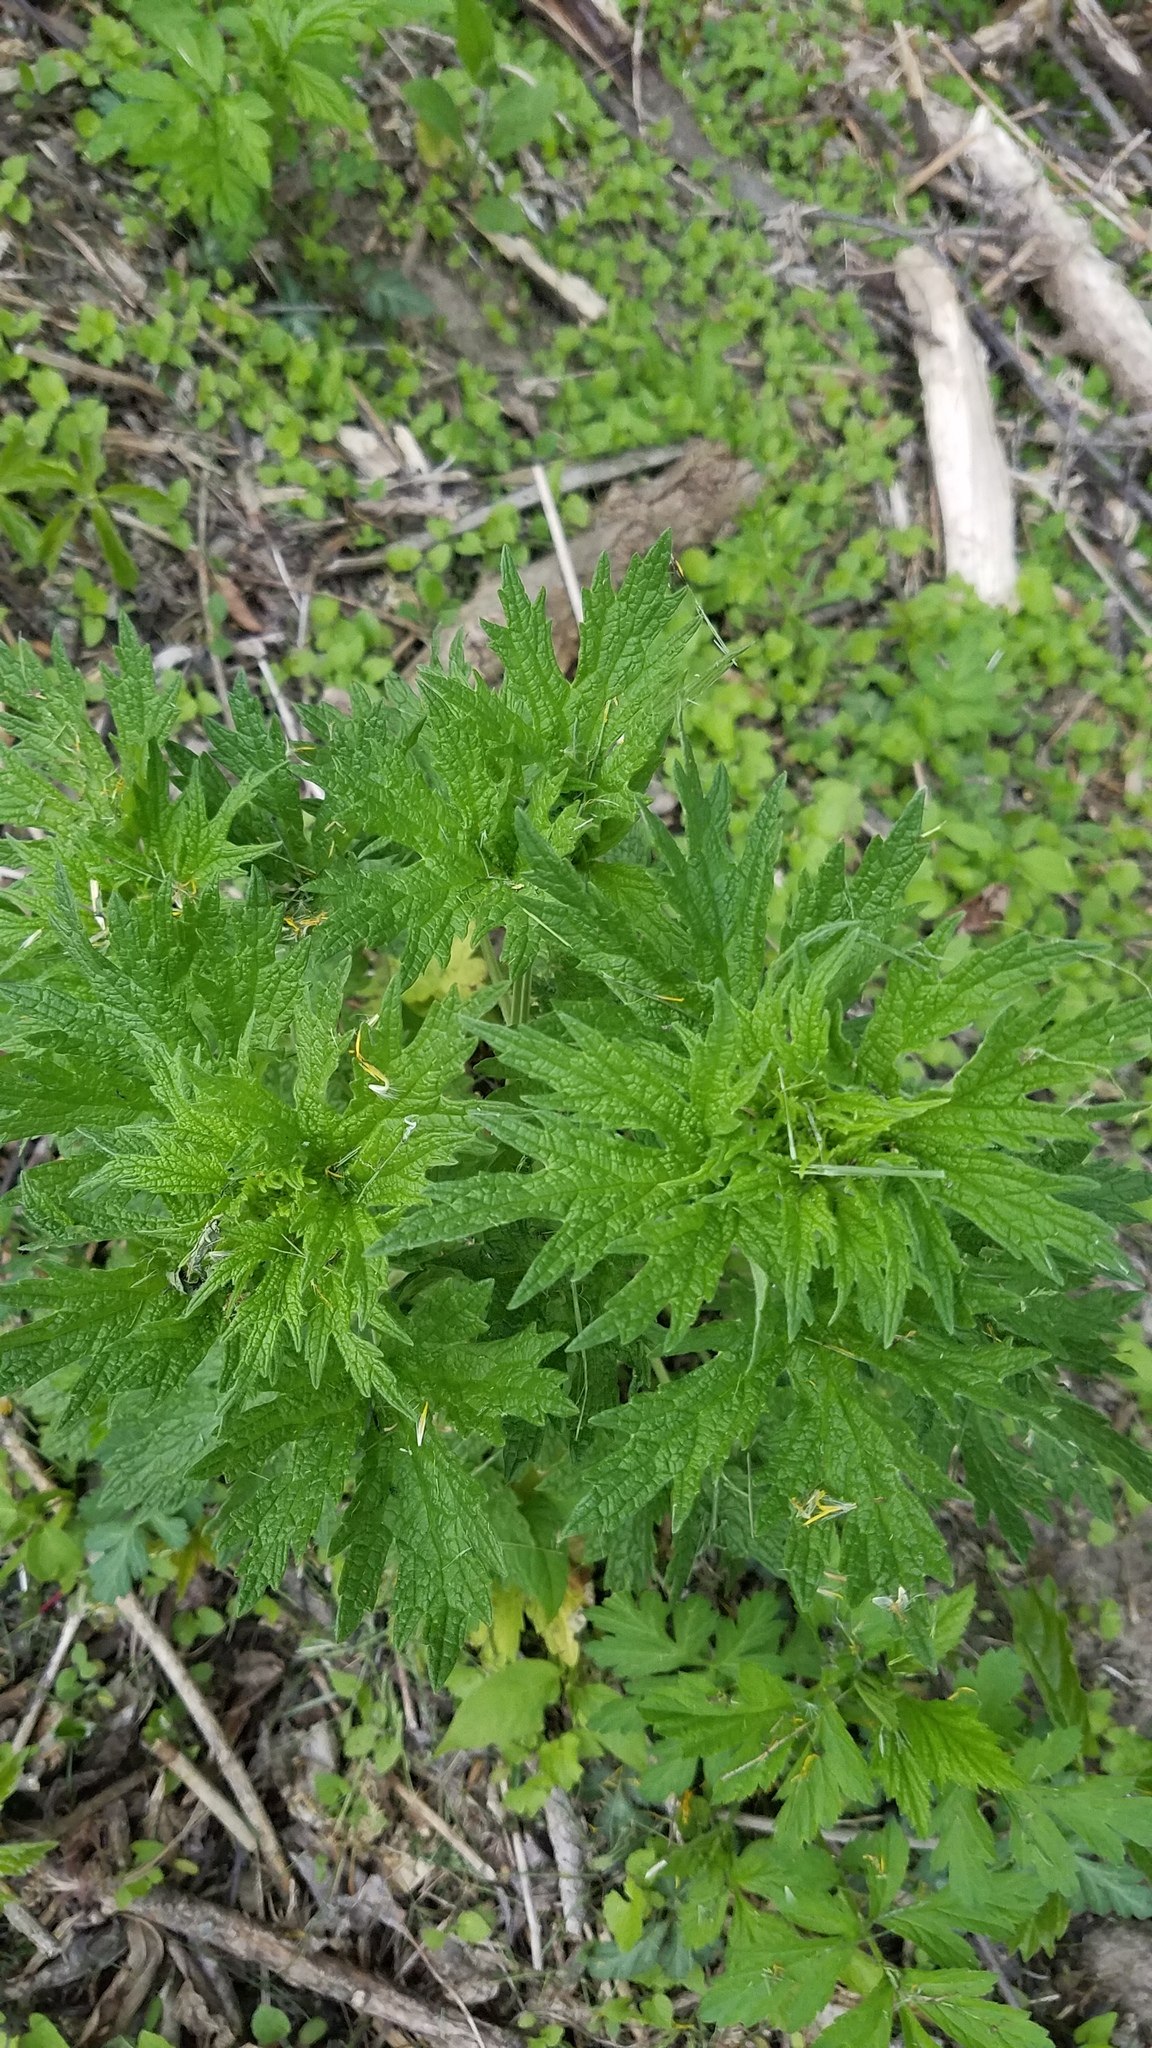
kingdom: Plantae
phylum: Tracheophyta
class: Magnoliopsida
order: Lamiales
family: Lamiaceae
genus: Leonurus
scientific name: Leonurus cardiaca
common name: Motherwort
